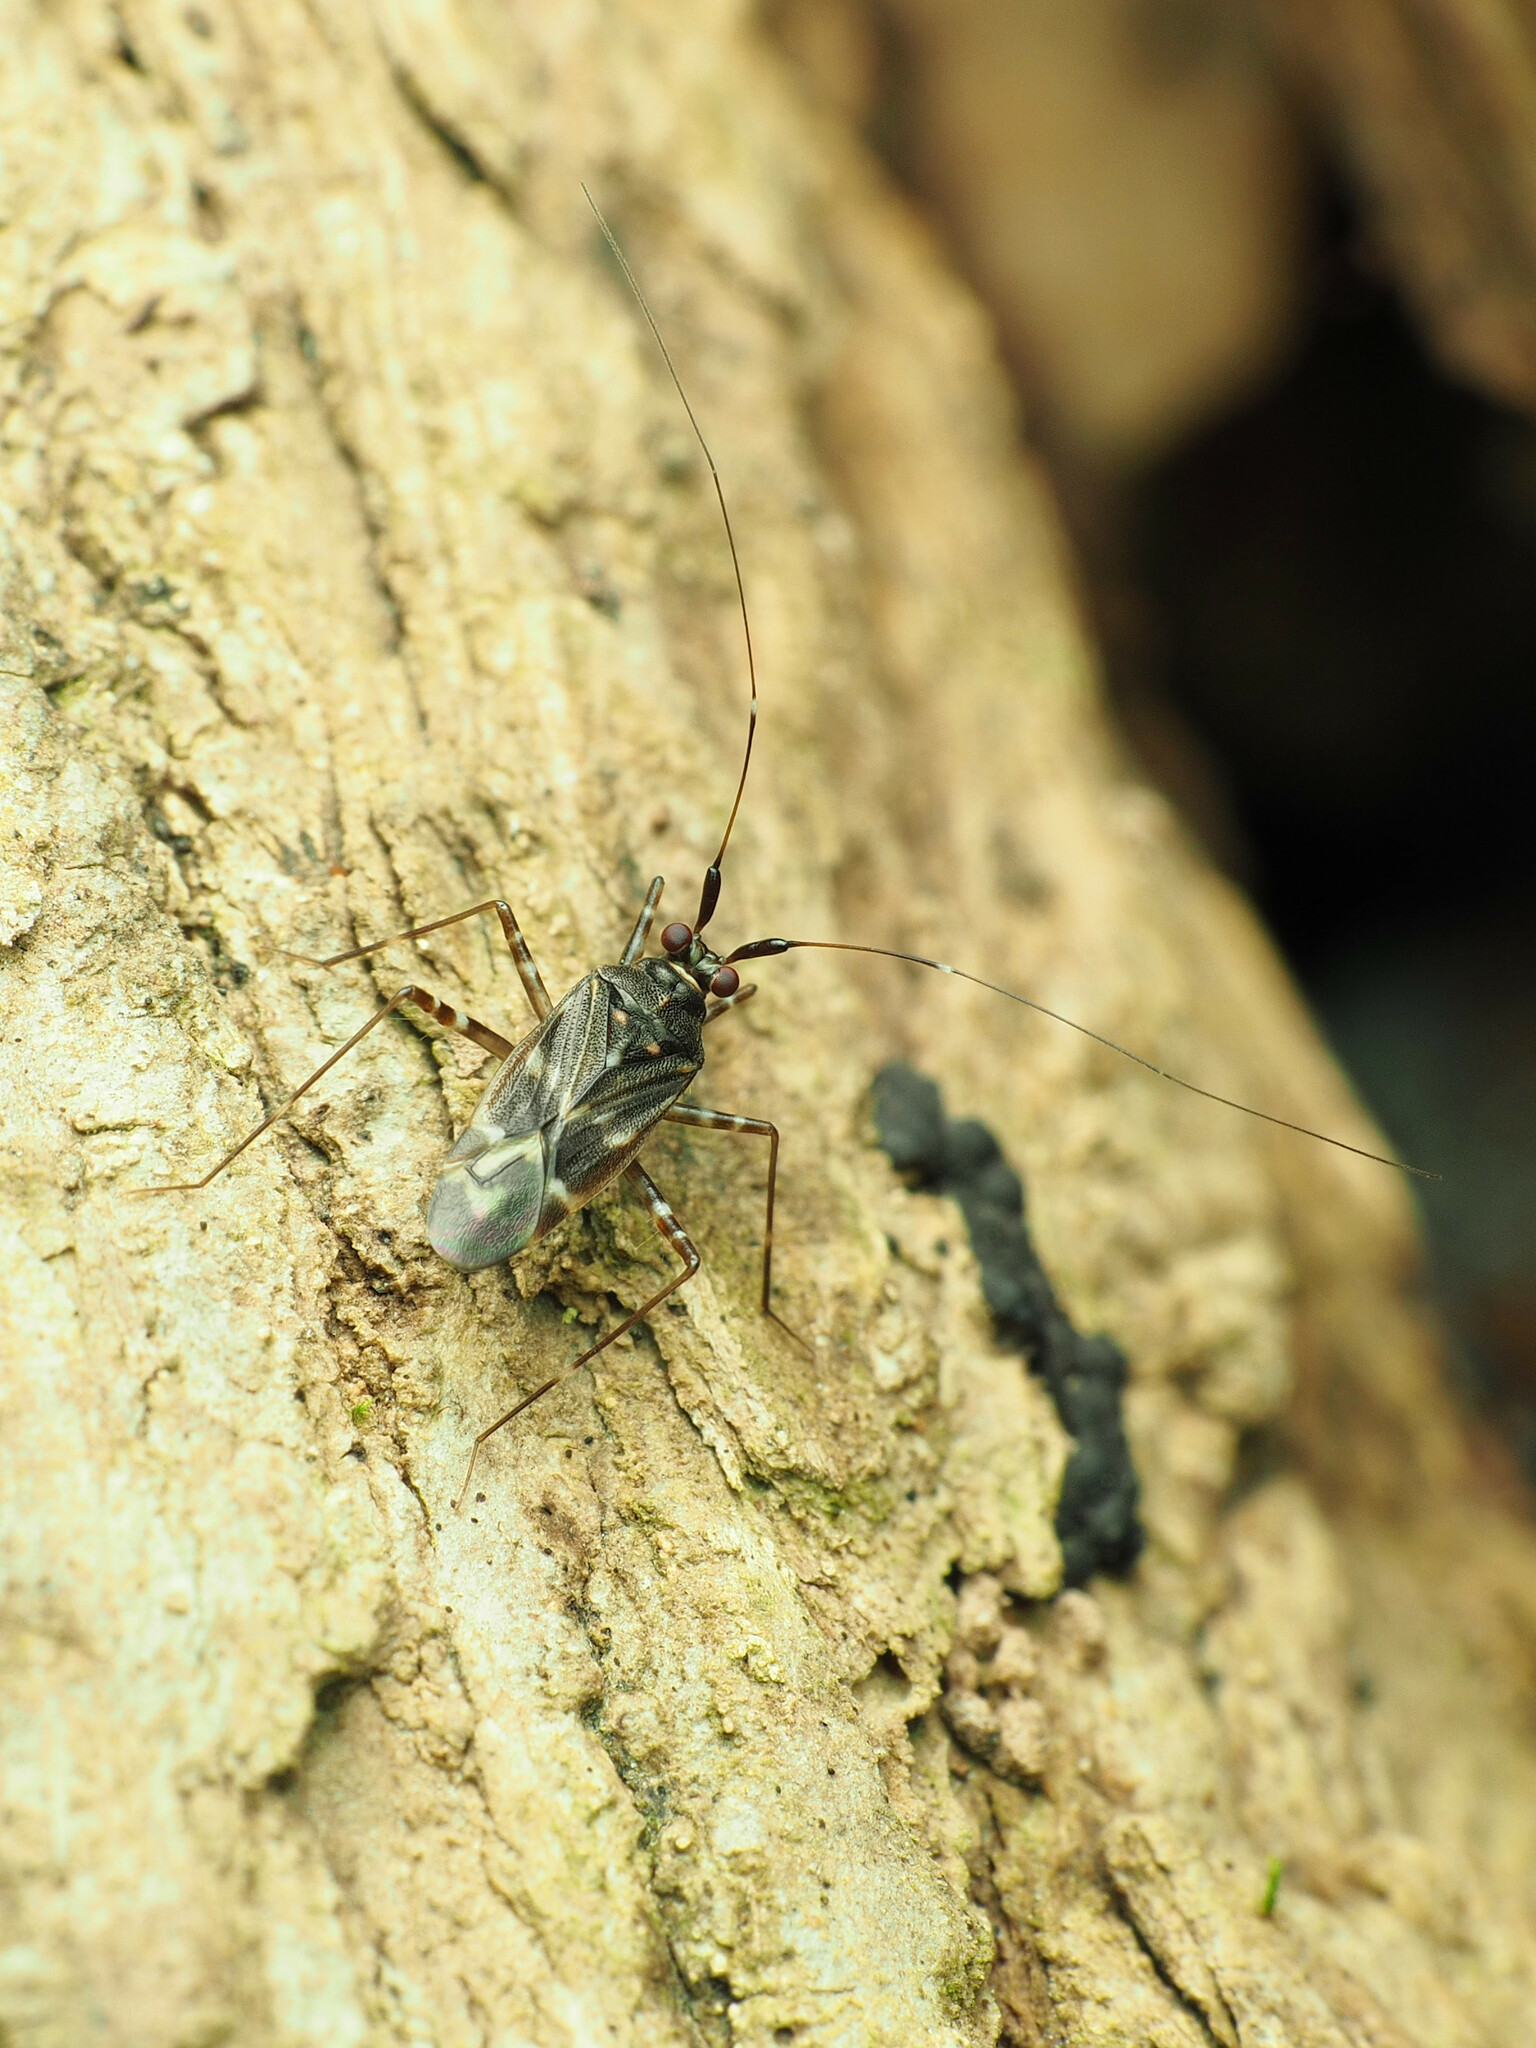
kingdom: Animalia
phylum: Arthropoda
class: Insecta
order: Hemiptera
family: Miridae
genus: Cylapus
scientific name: Cylapus tenuicornis
